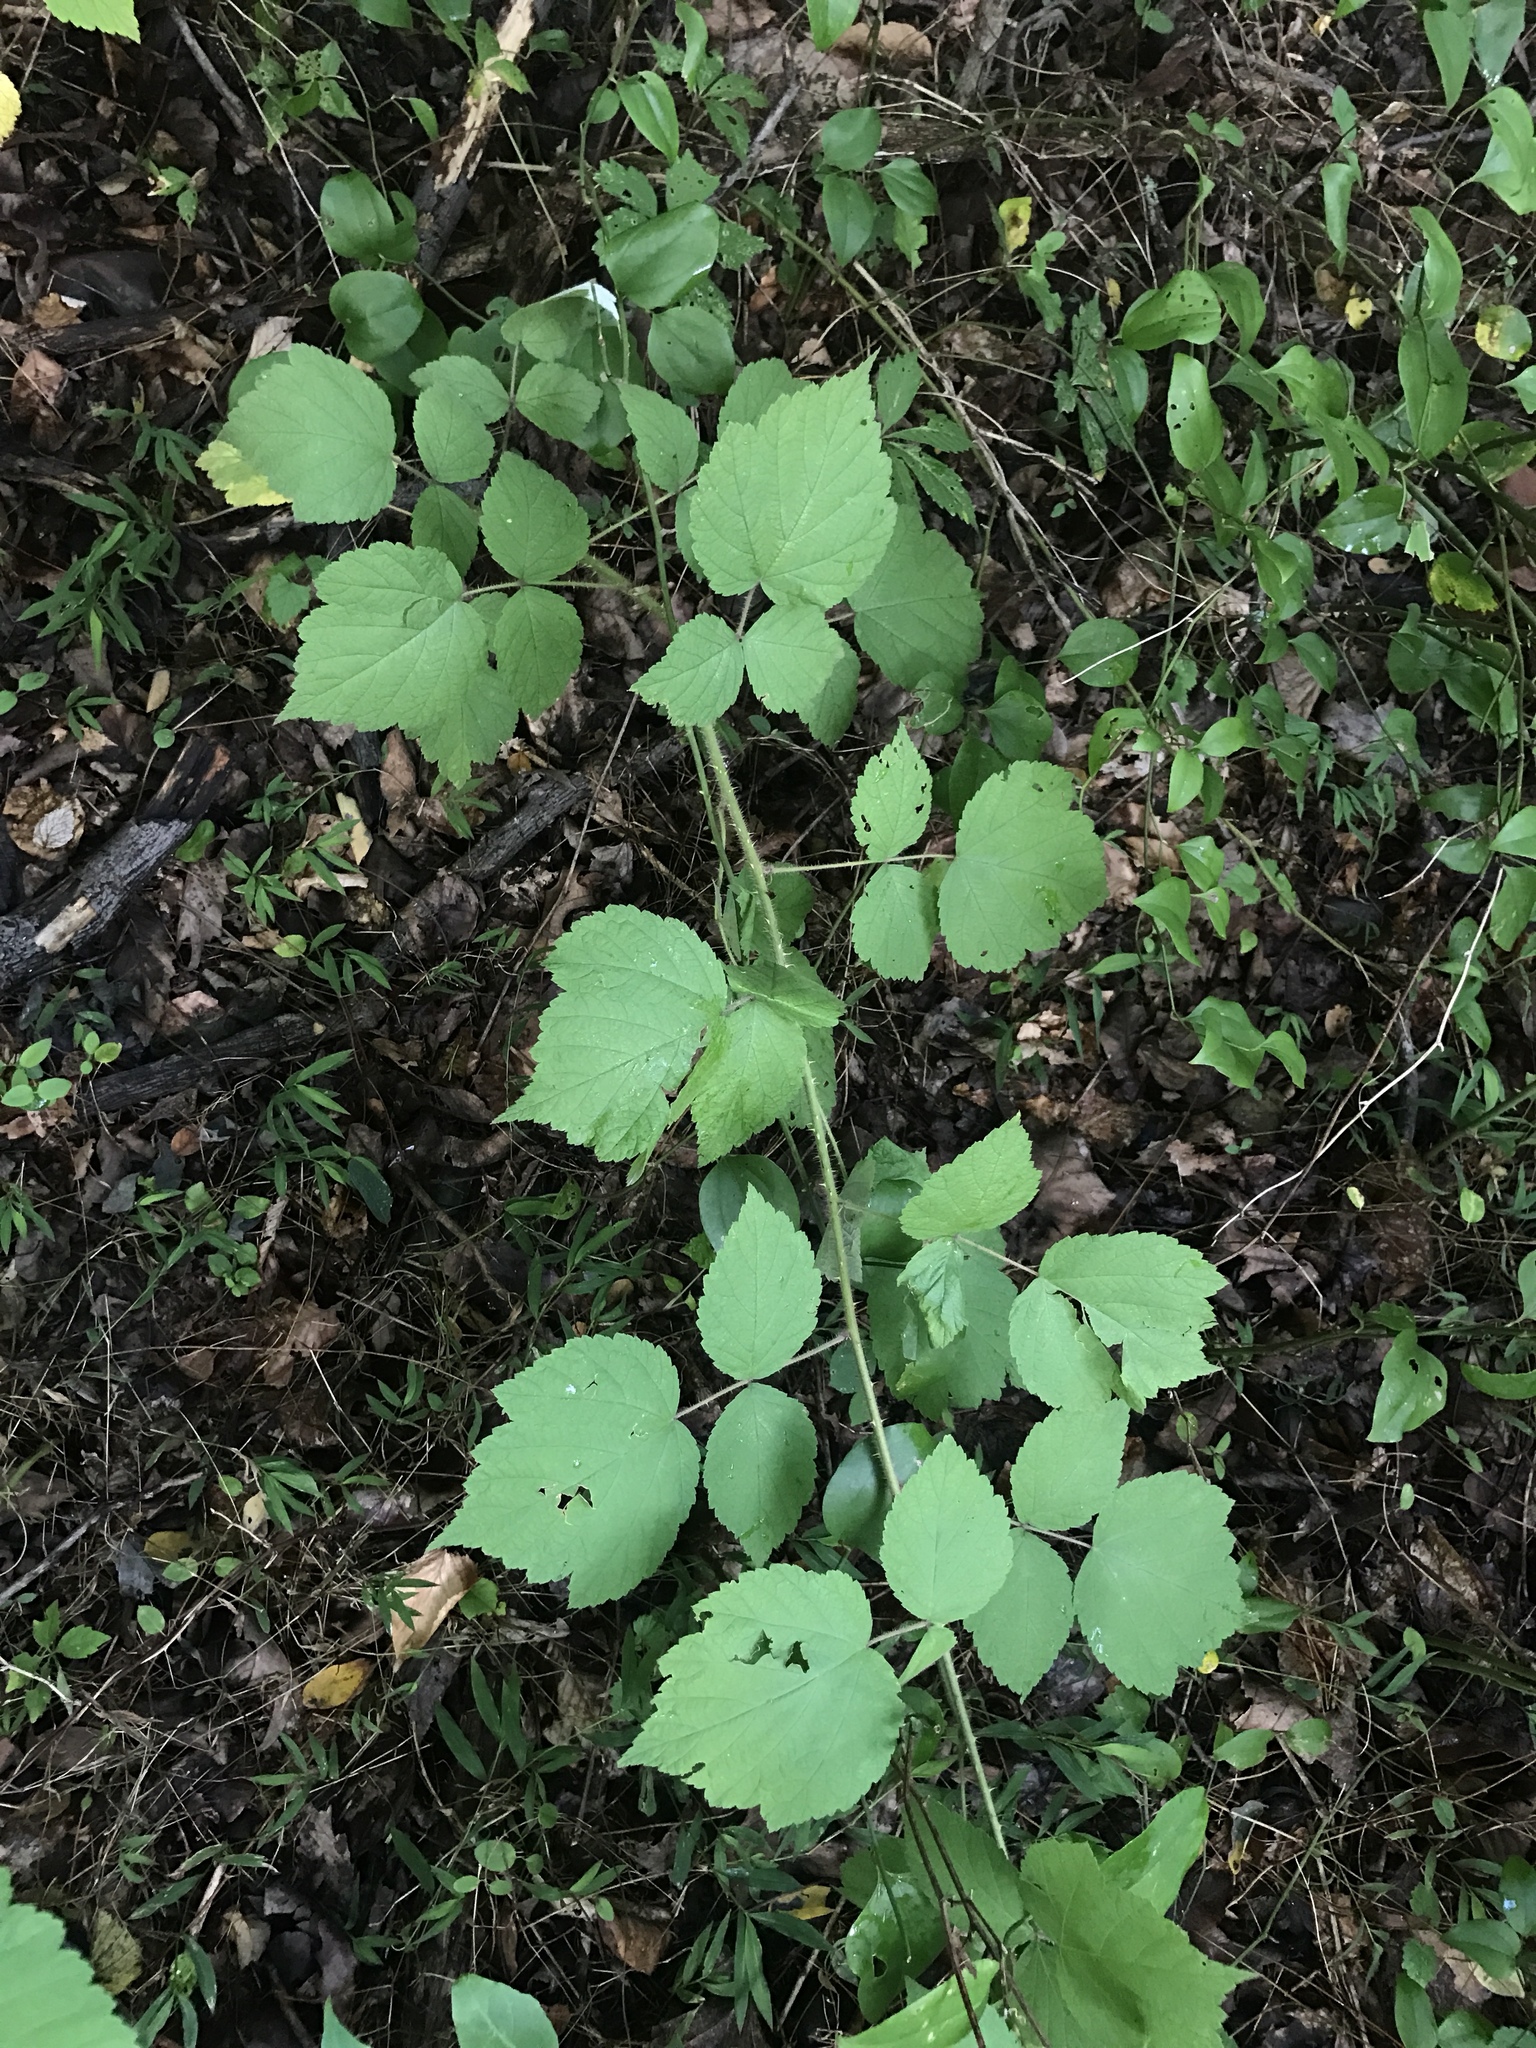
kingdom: Plantae
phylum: Tracheophyta
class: Magnoliopsida
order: Rosales
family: Rosaceae
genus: Rubus
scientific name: Rubus phoenicolasius
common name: Japanese wineberry
